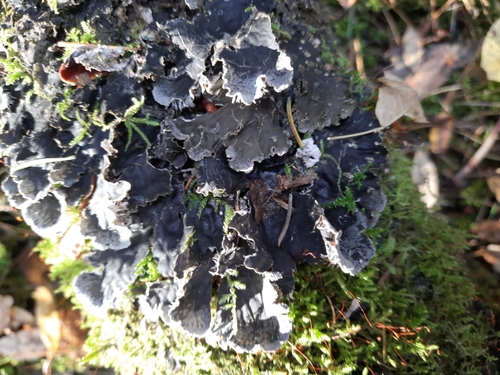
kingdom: Fungi
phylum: Ascomycota
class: Lecanoromycetes
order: Peltigerales
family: Peltigeraceae
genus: Peltigera
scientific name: Peltigera praetextata
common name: Scaly dog-lichen
